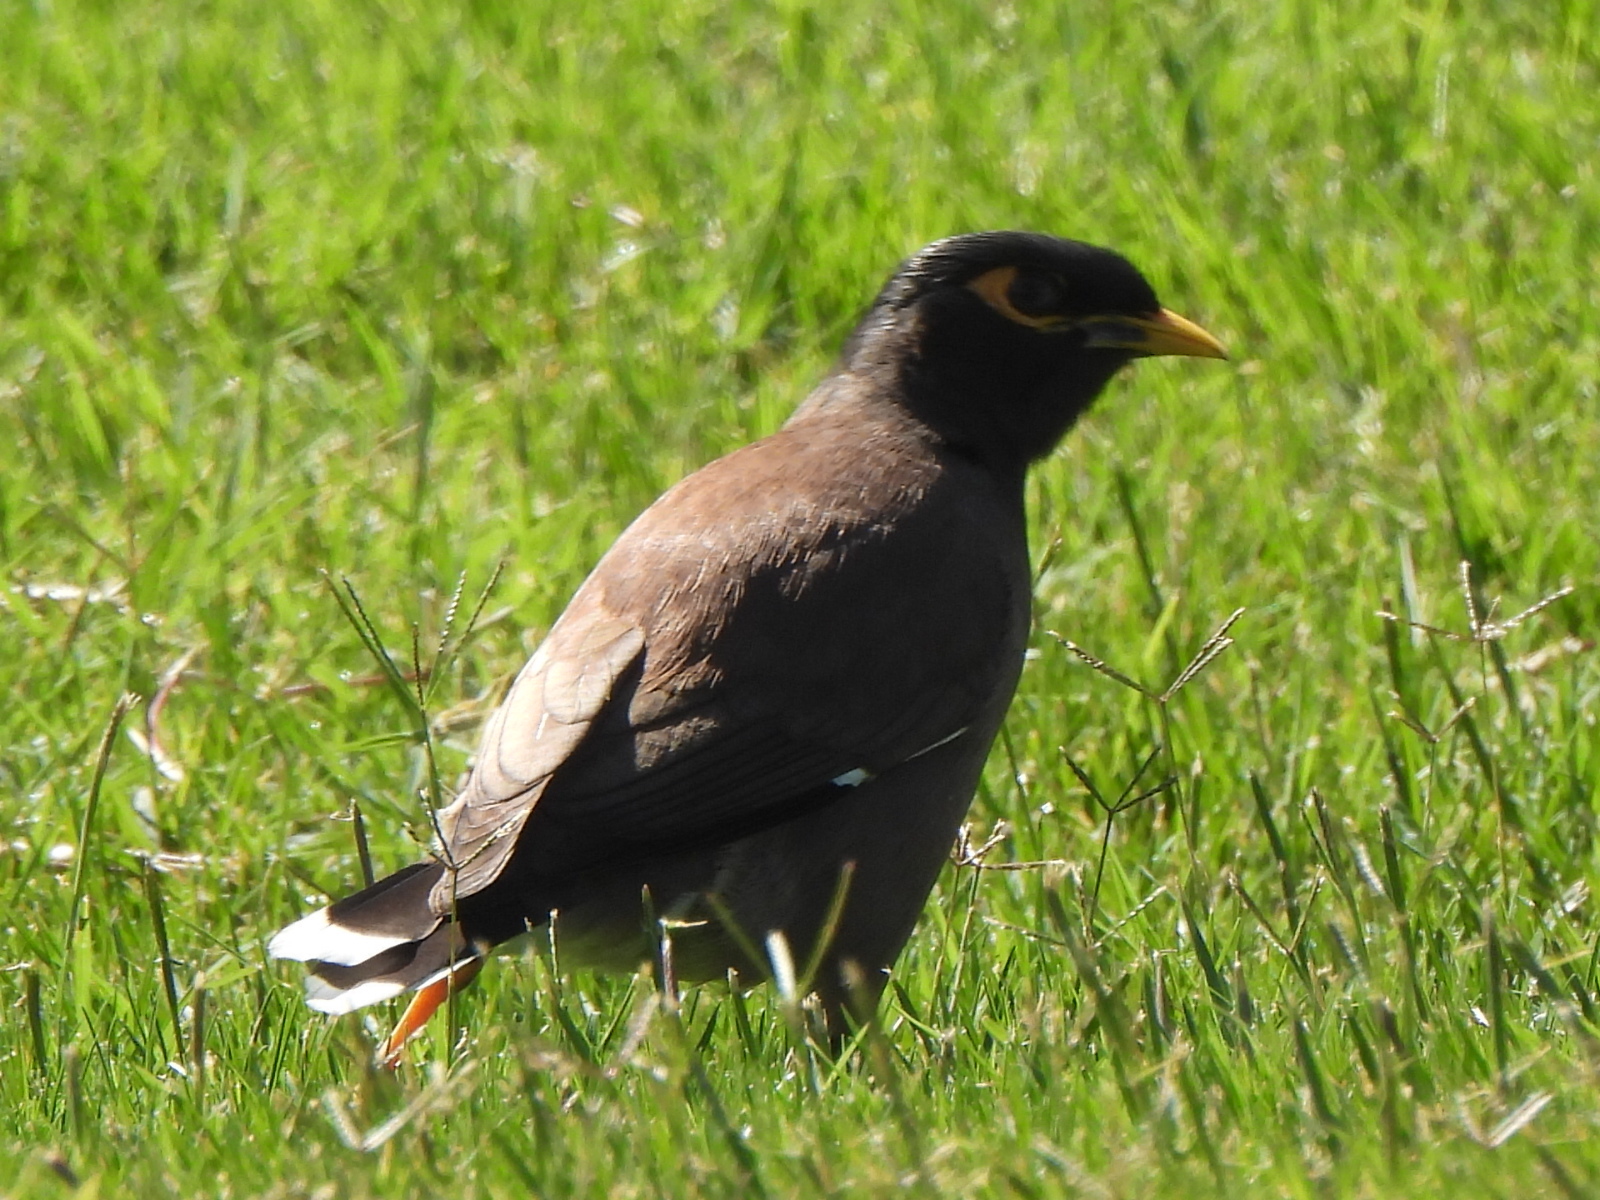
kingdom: Animalia
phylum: Chordata
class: Aves
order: Passeriformes
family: Sturnidae
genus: Acridotheres
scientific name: Acridotheres tristis
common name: Common myna
